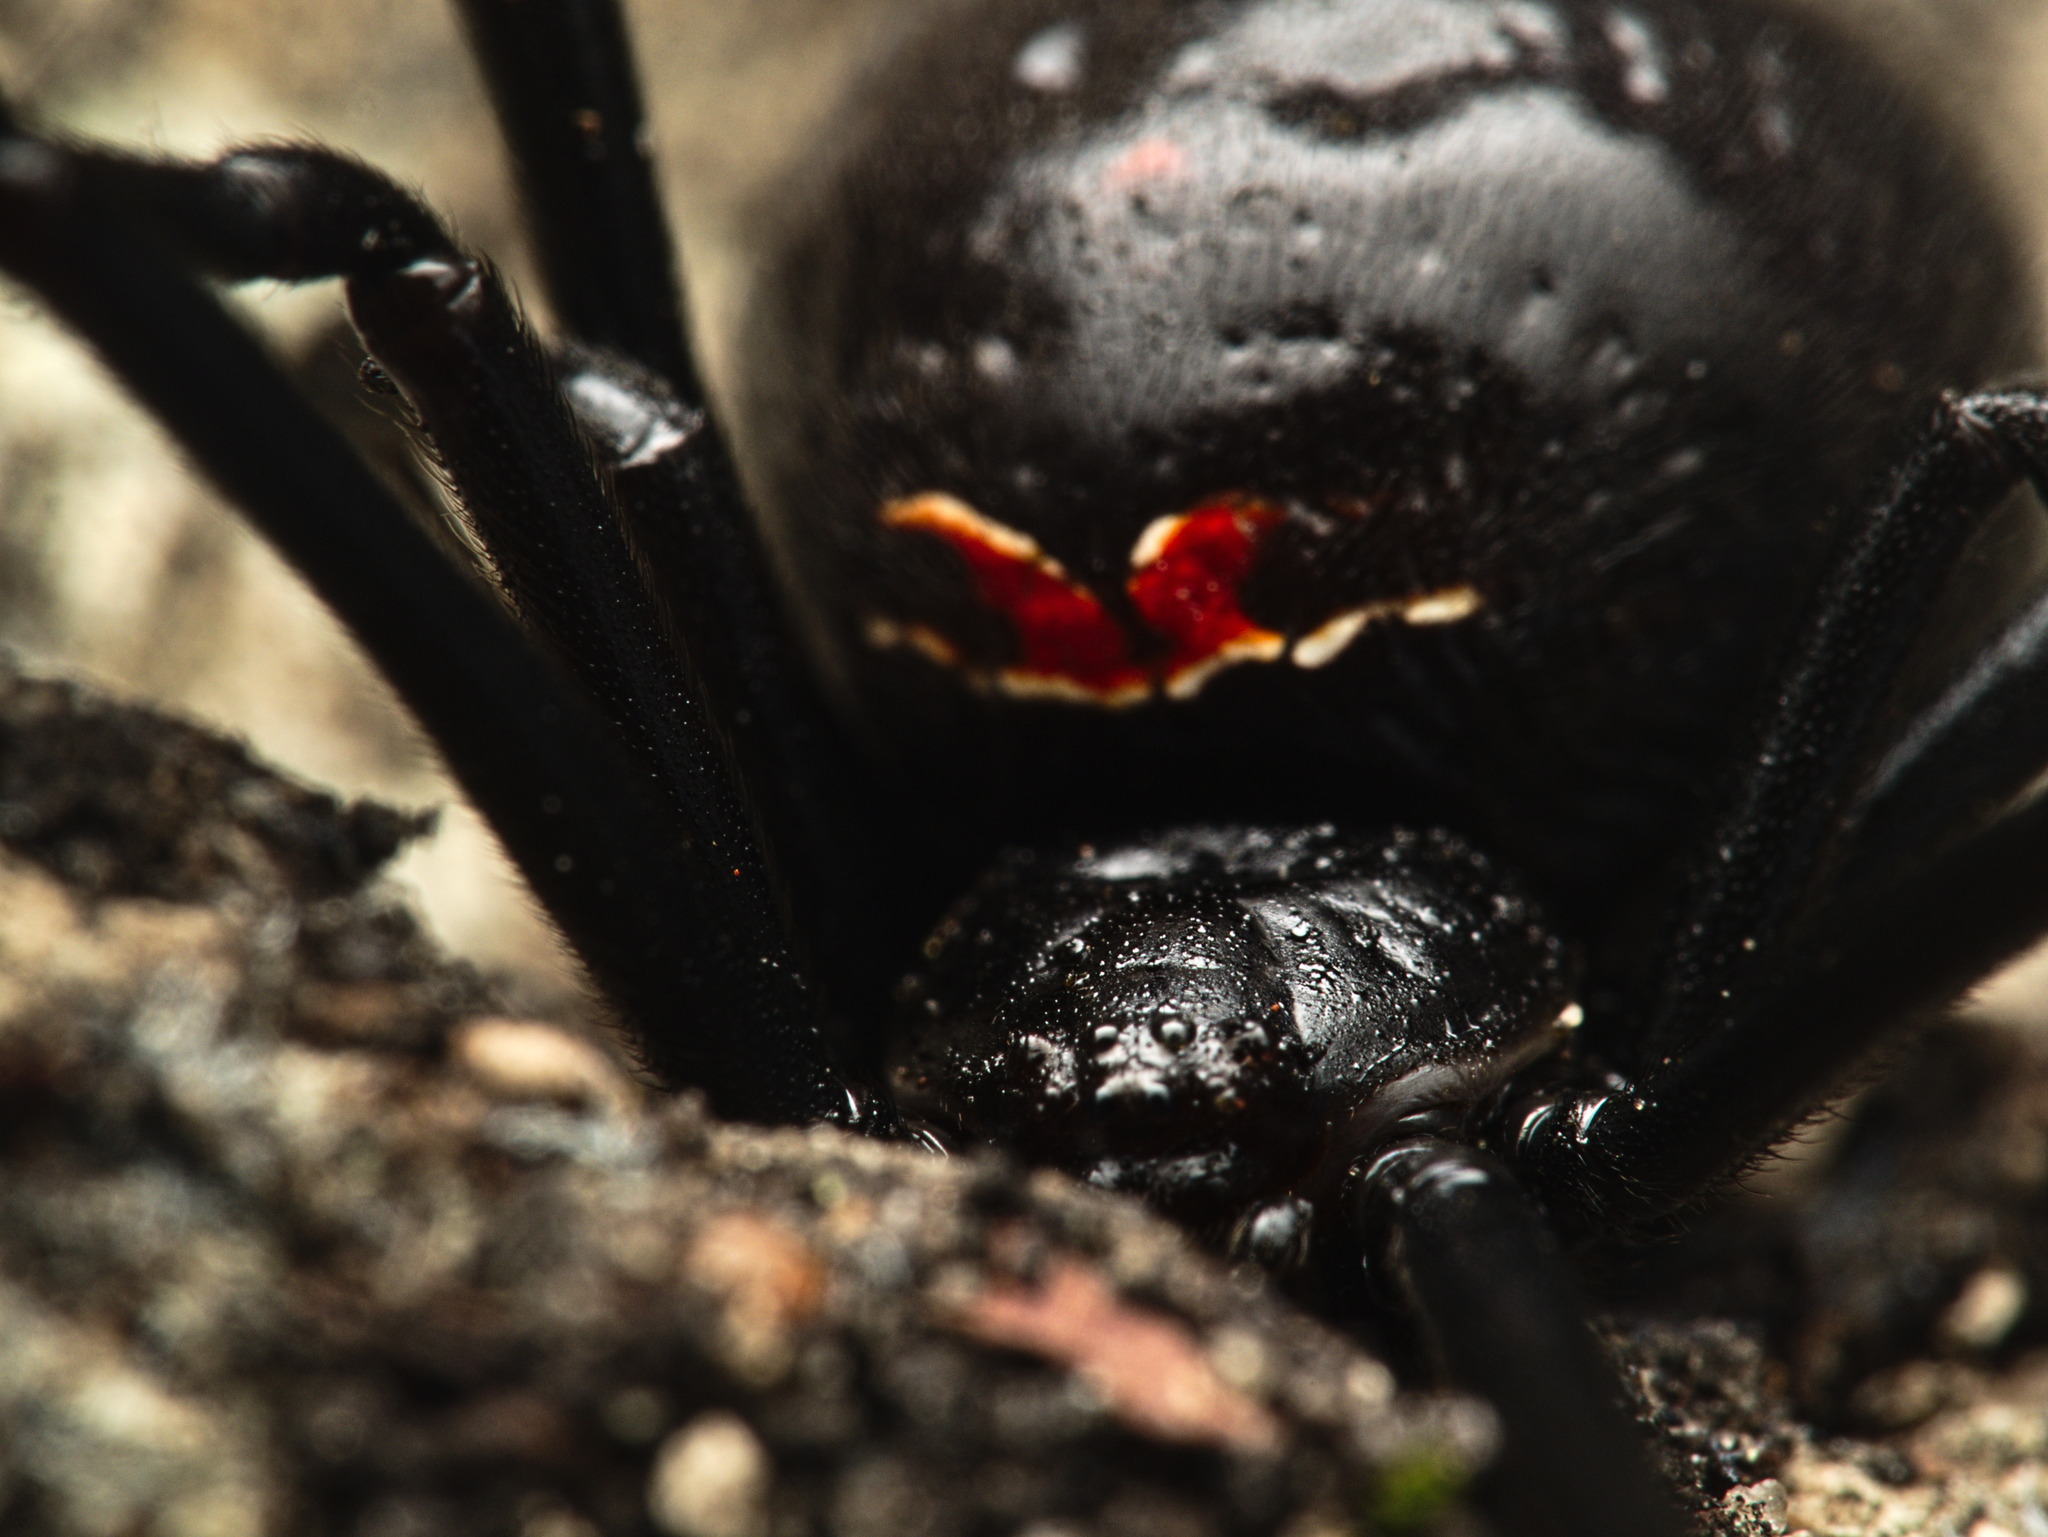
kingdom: Animalia
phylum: Arthropoda
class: Arachnida
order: Araneae
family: Theridiidae
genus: Latrodectus
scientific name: Latrodectus
